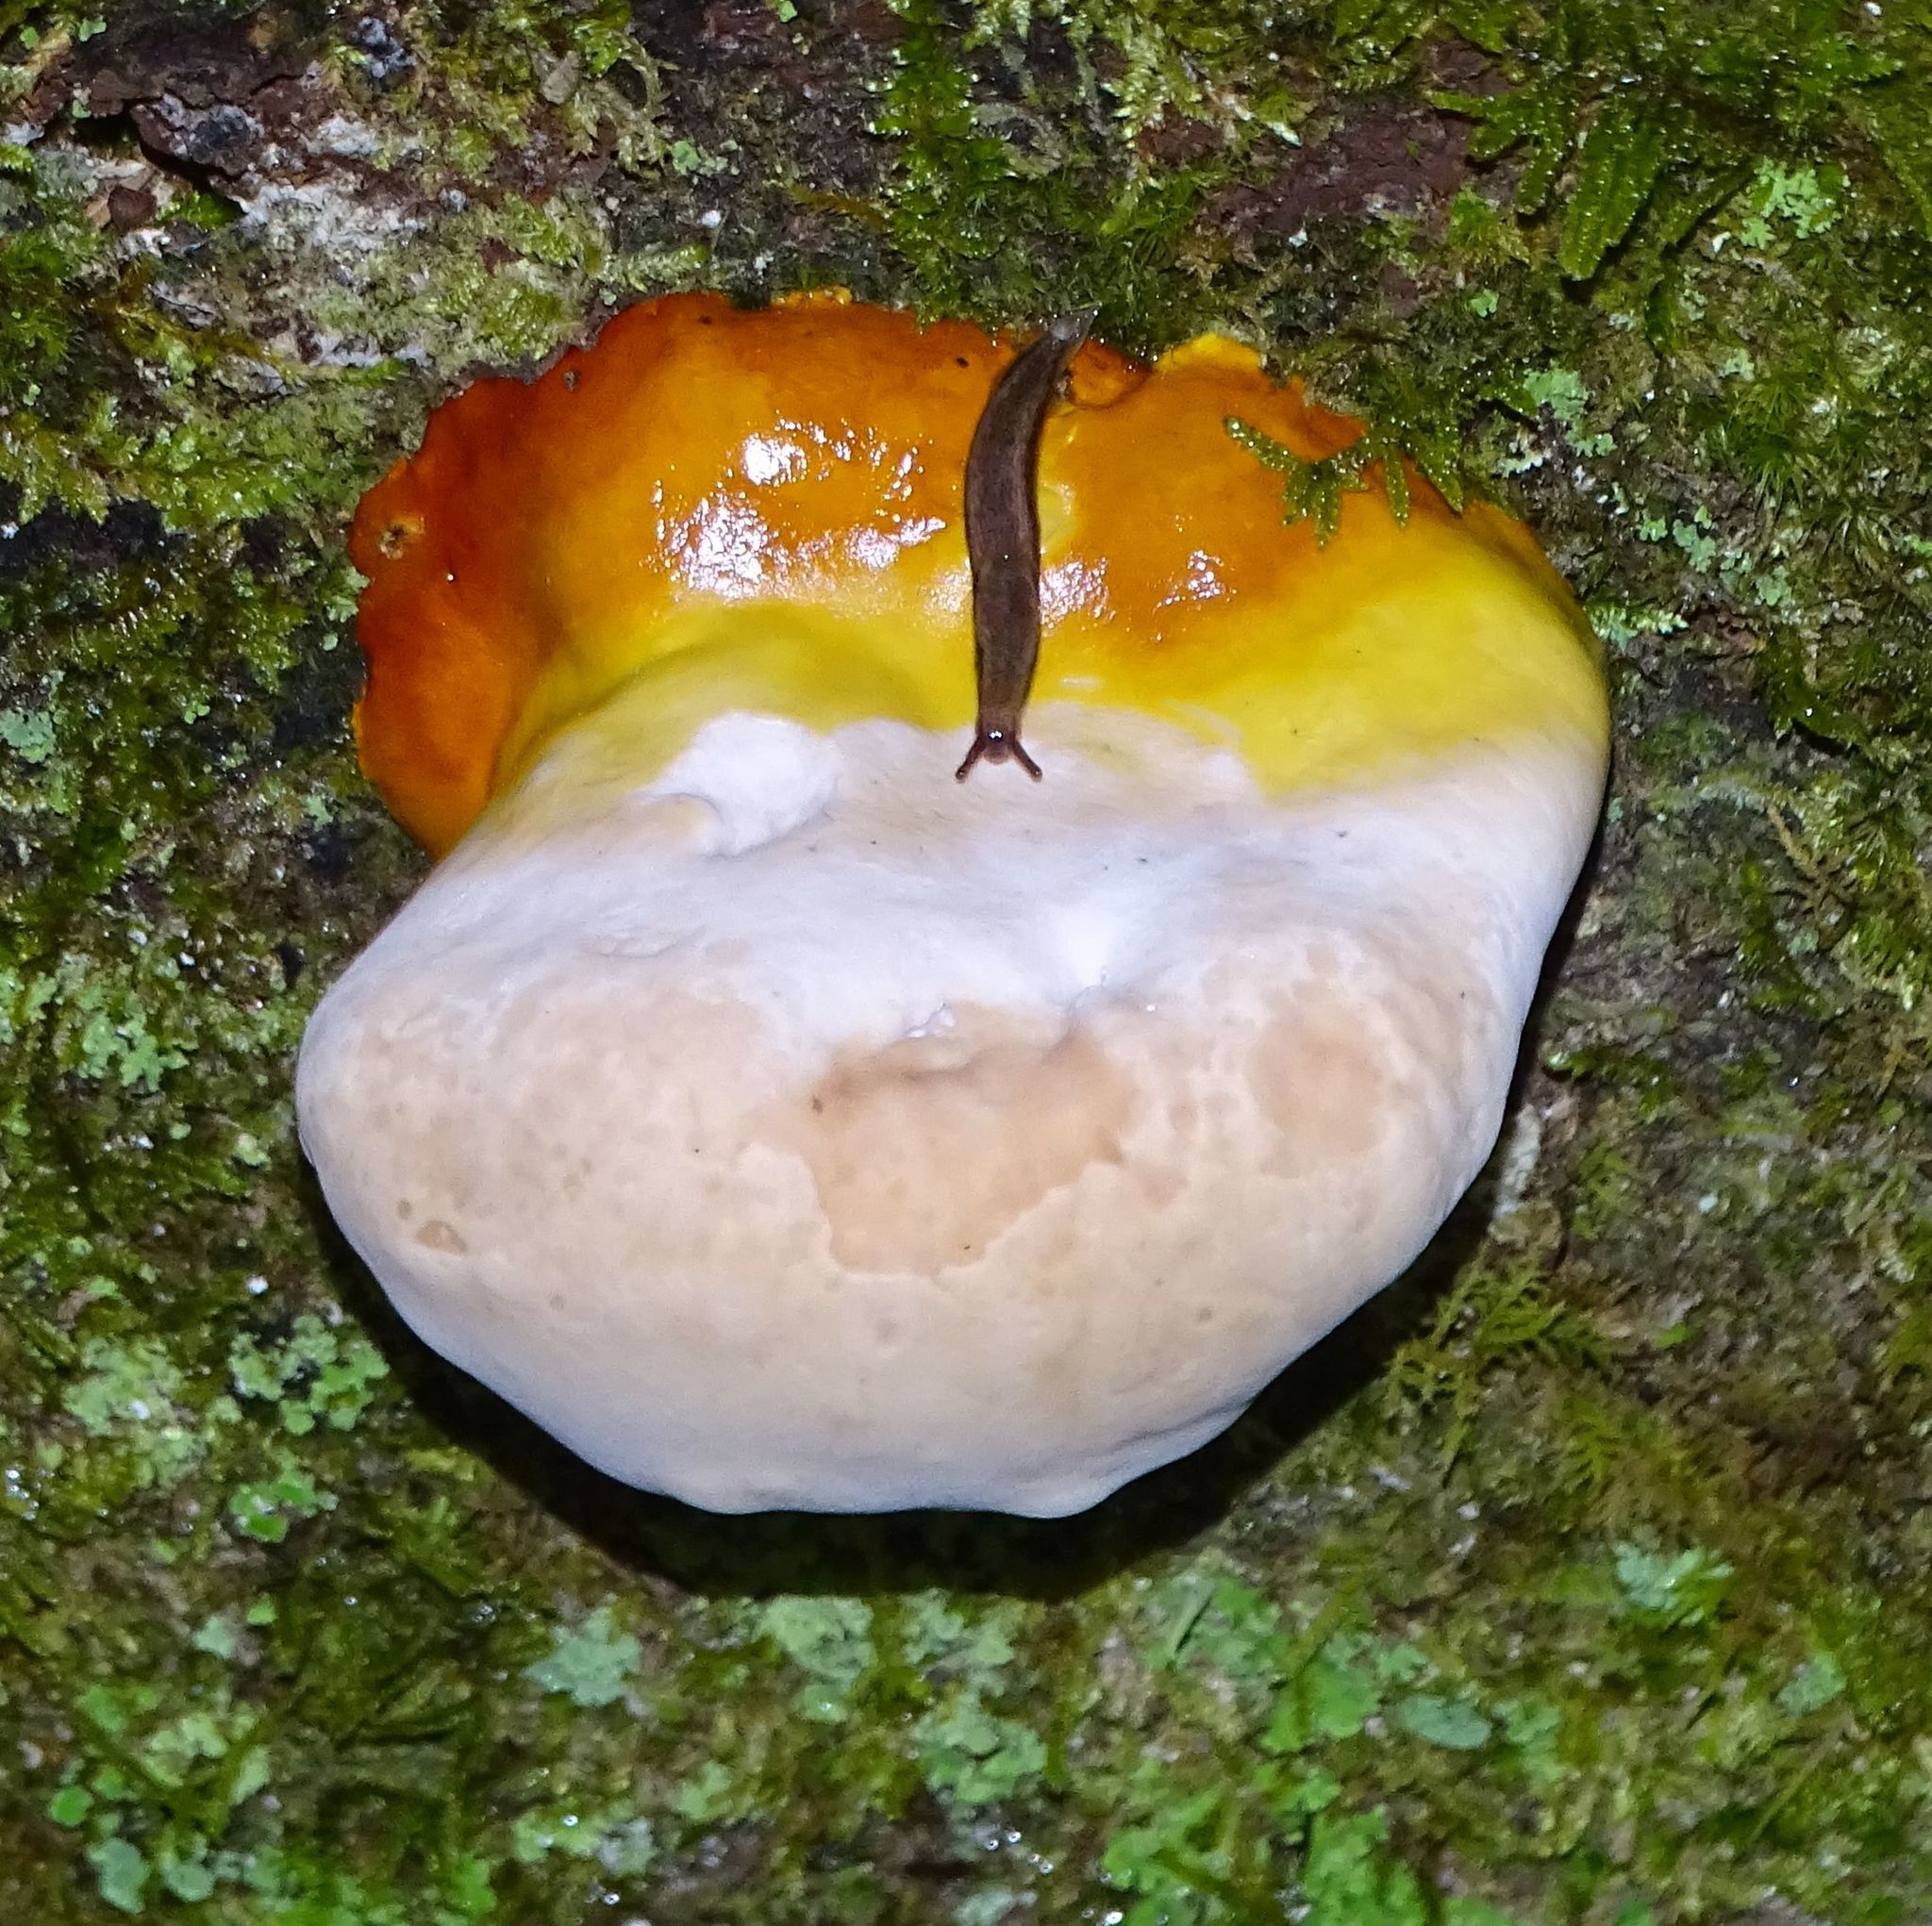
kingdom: Fungi
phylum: Basidiomycota
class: Agaricomycetes
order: Polyporales
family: Polyporaceae
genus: Ganoderma
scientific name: Ganoderma tsugae
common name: Hemlock varnish shelf
